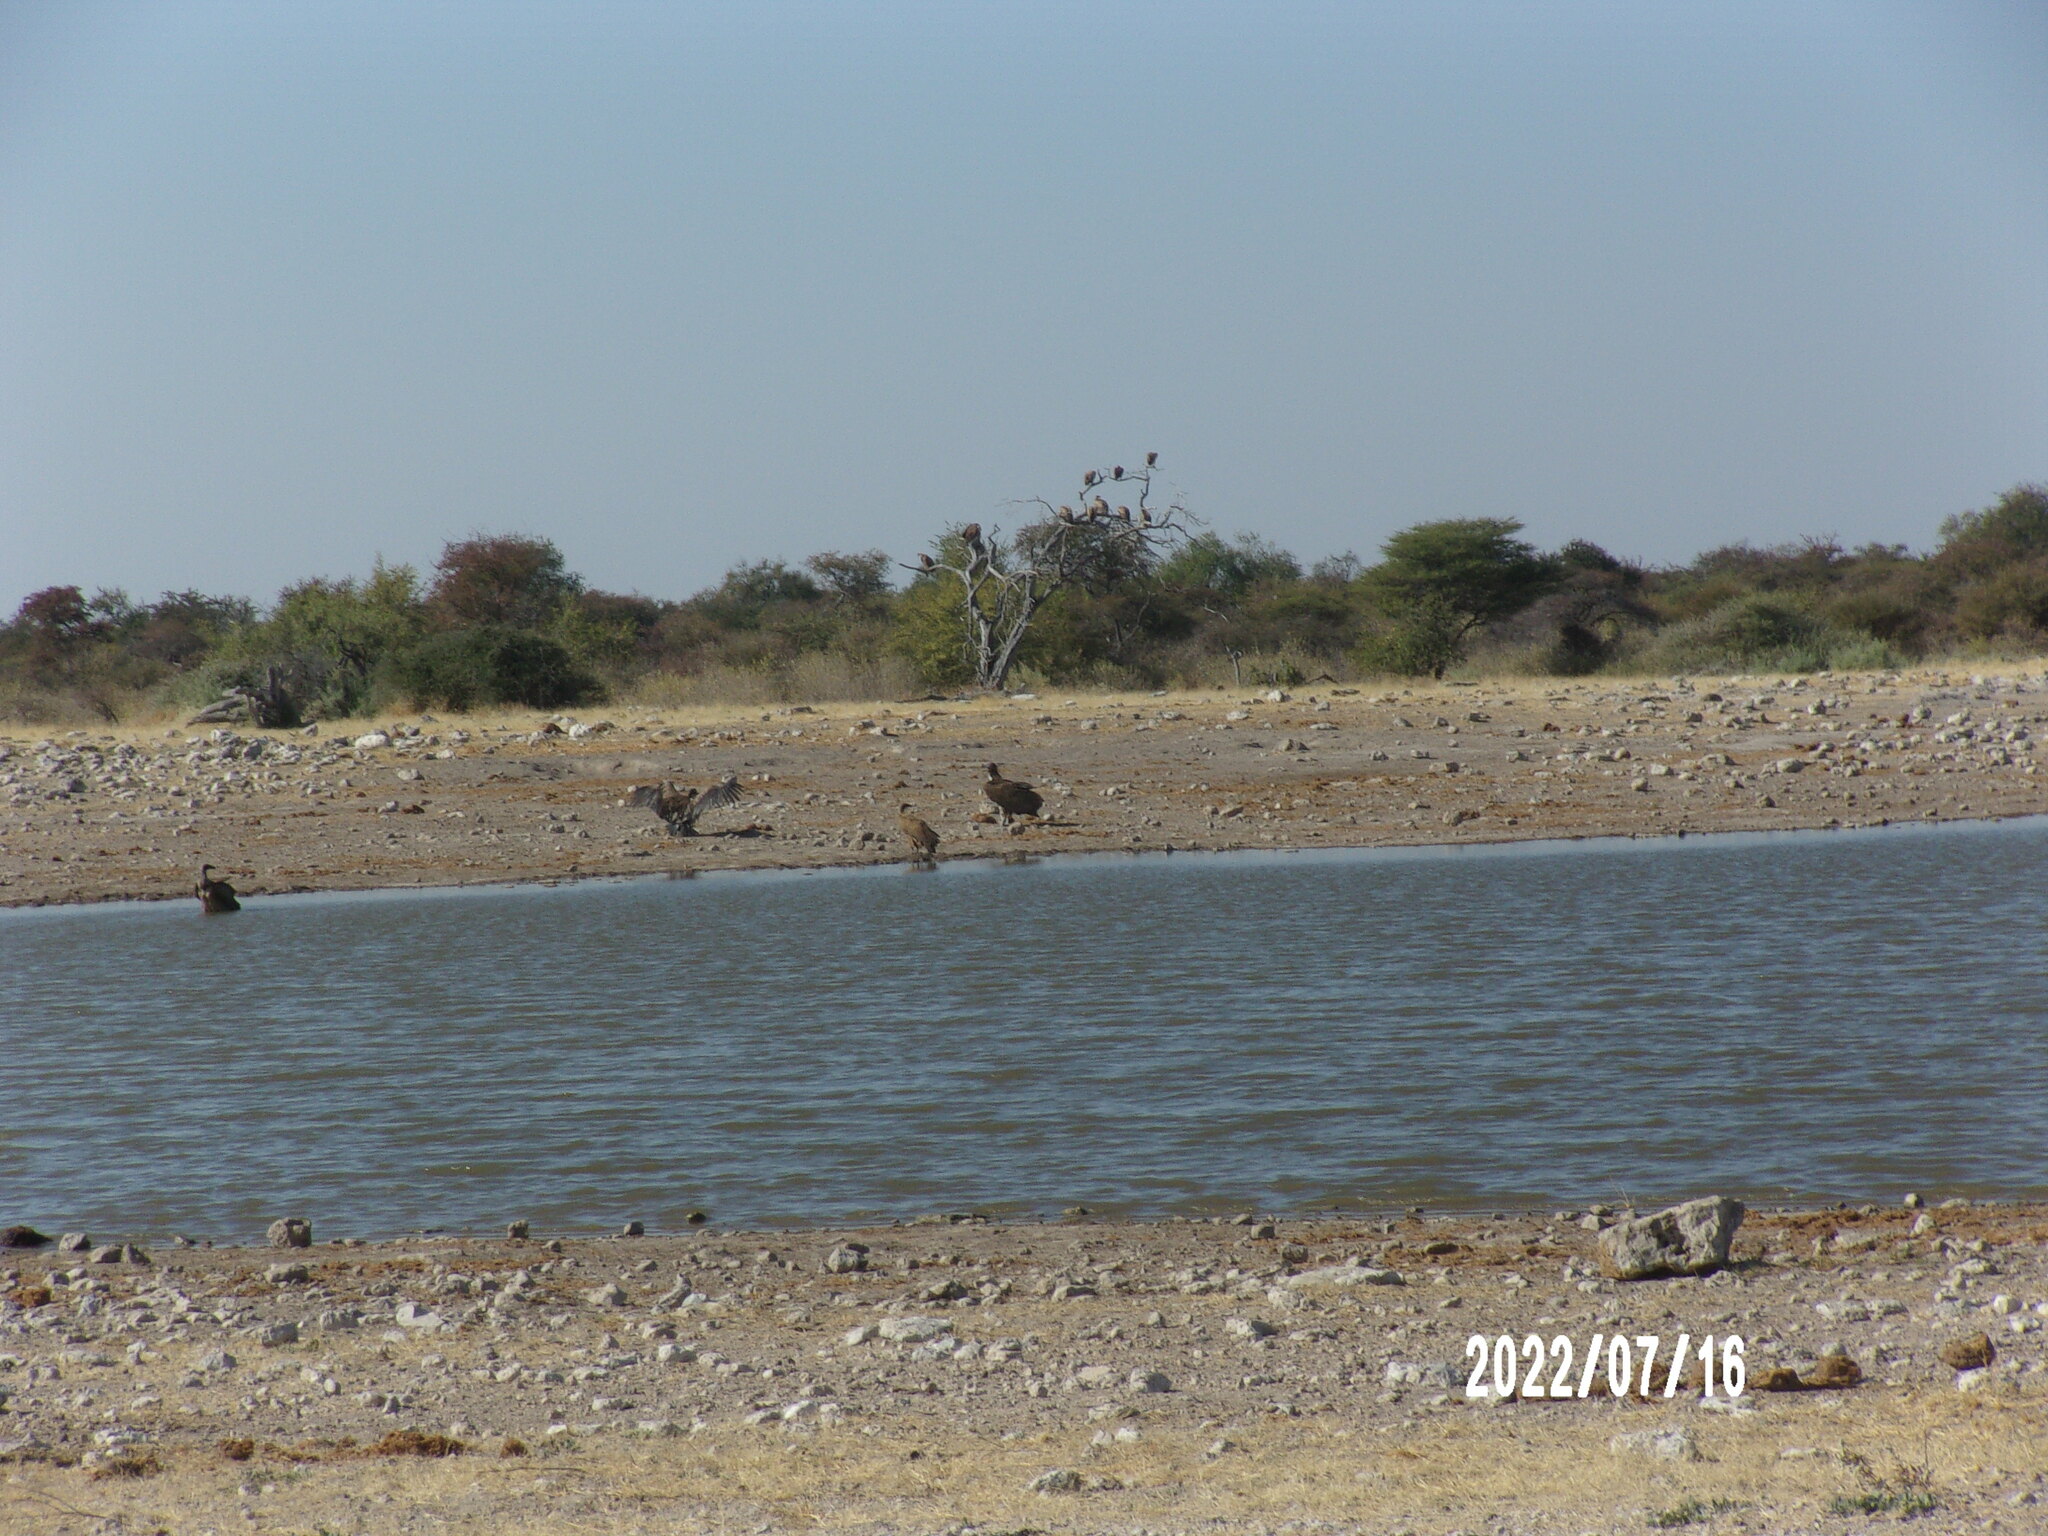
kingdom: Animalia
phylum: Chordata
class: Aves
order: Accipitriformes
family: Accipitridae
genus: Gyps
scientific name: Gyps africanus
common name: White-backed vulture
